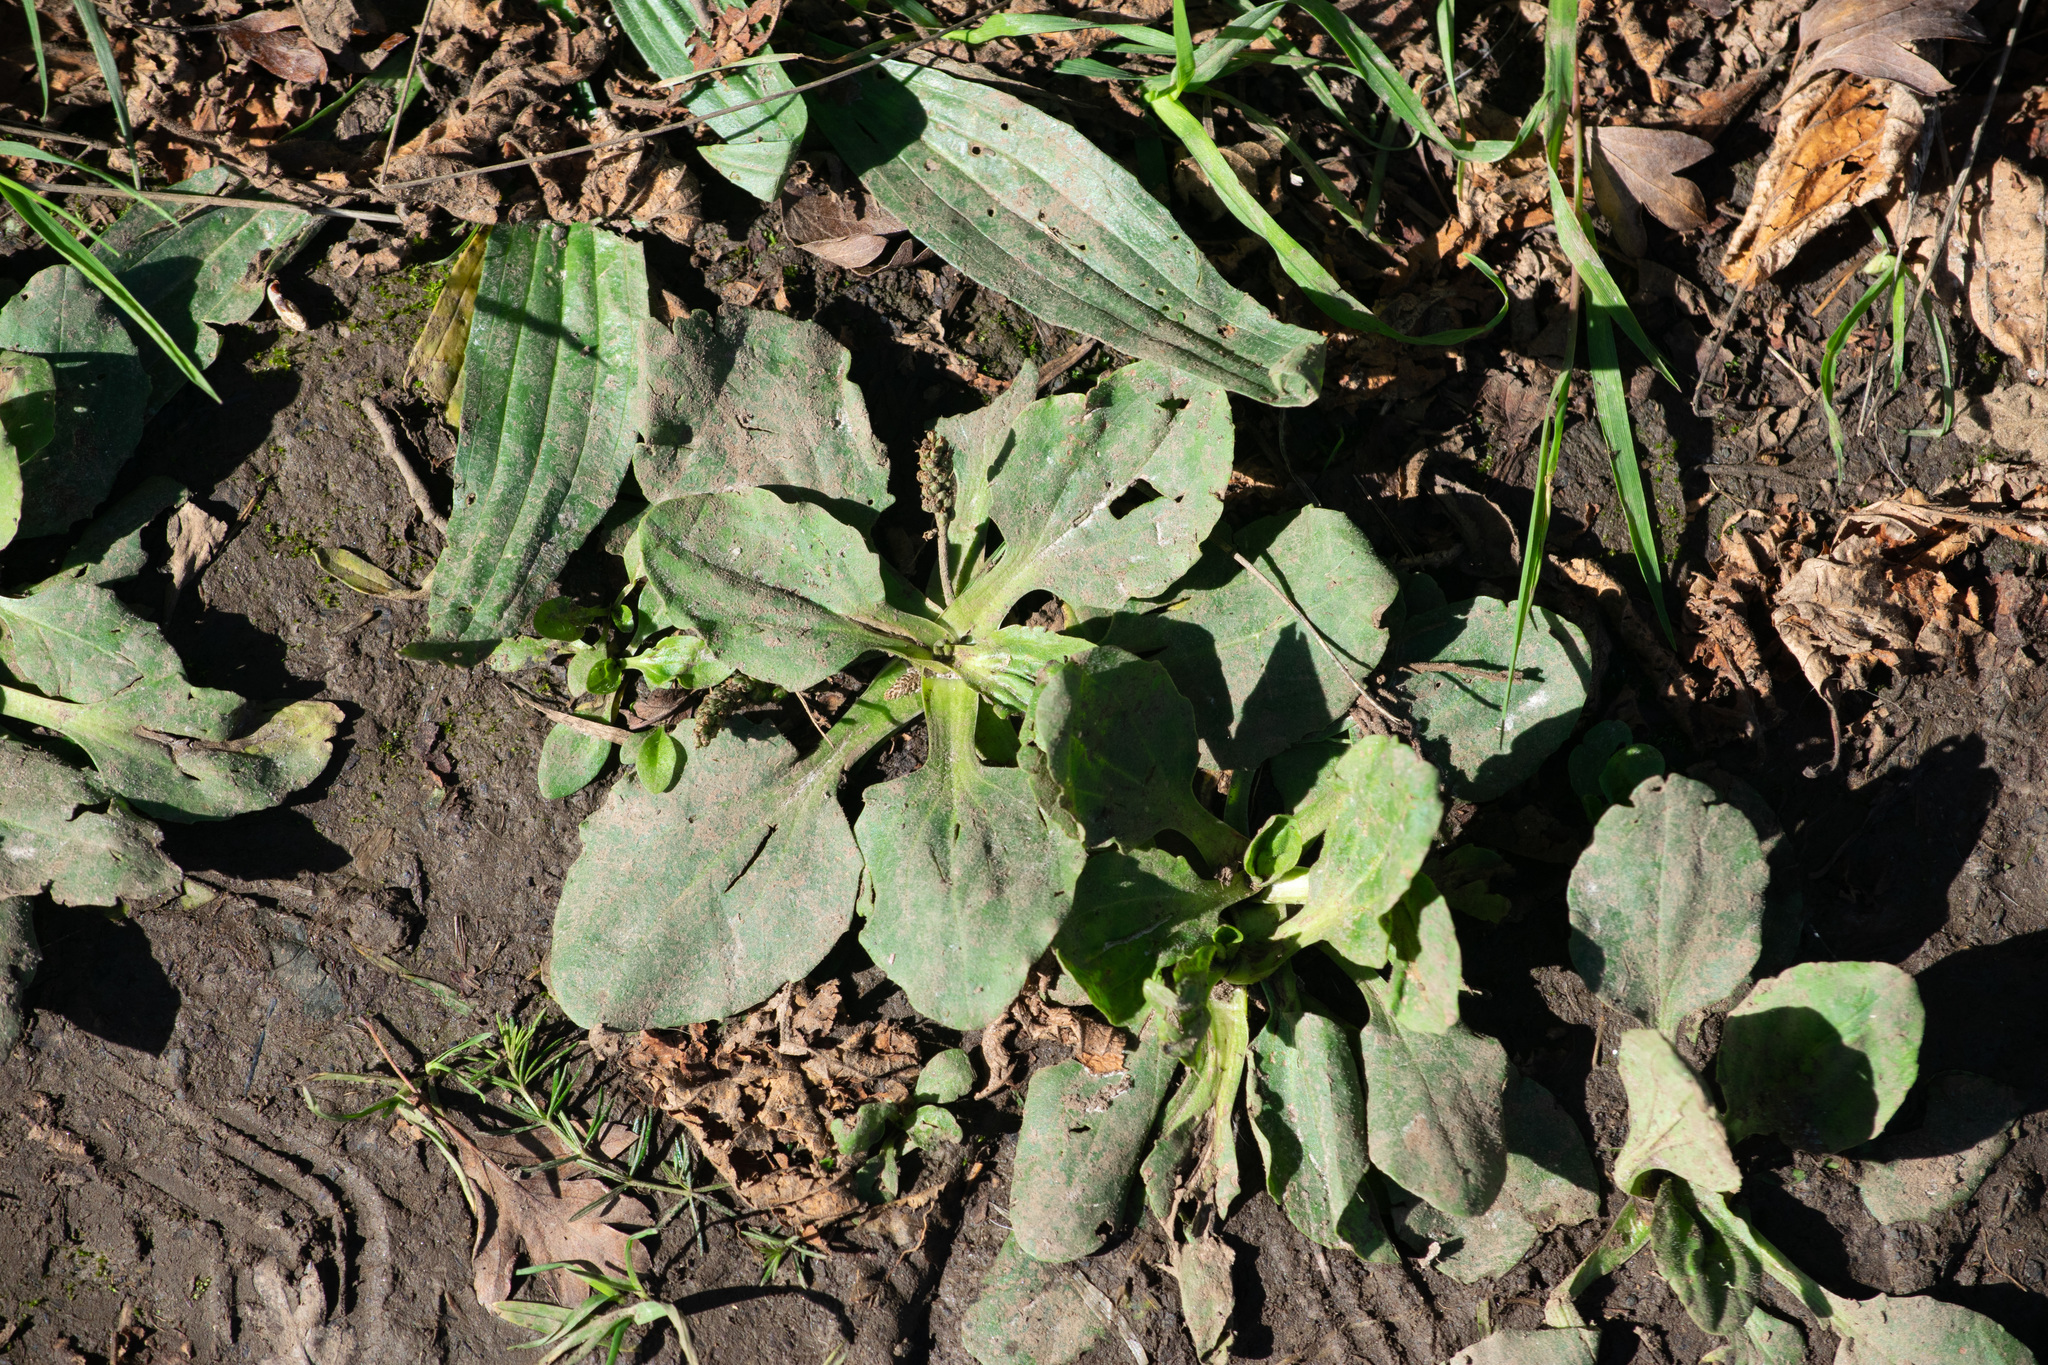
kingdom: Plantae
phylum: Tracheophyta
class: Magnoliopsida
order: Lamiales
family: Plantaginaceae
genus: Plantago
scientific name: Plantago major
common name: Common plantain
